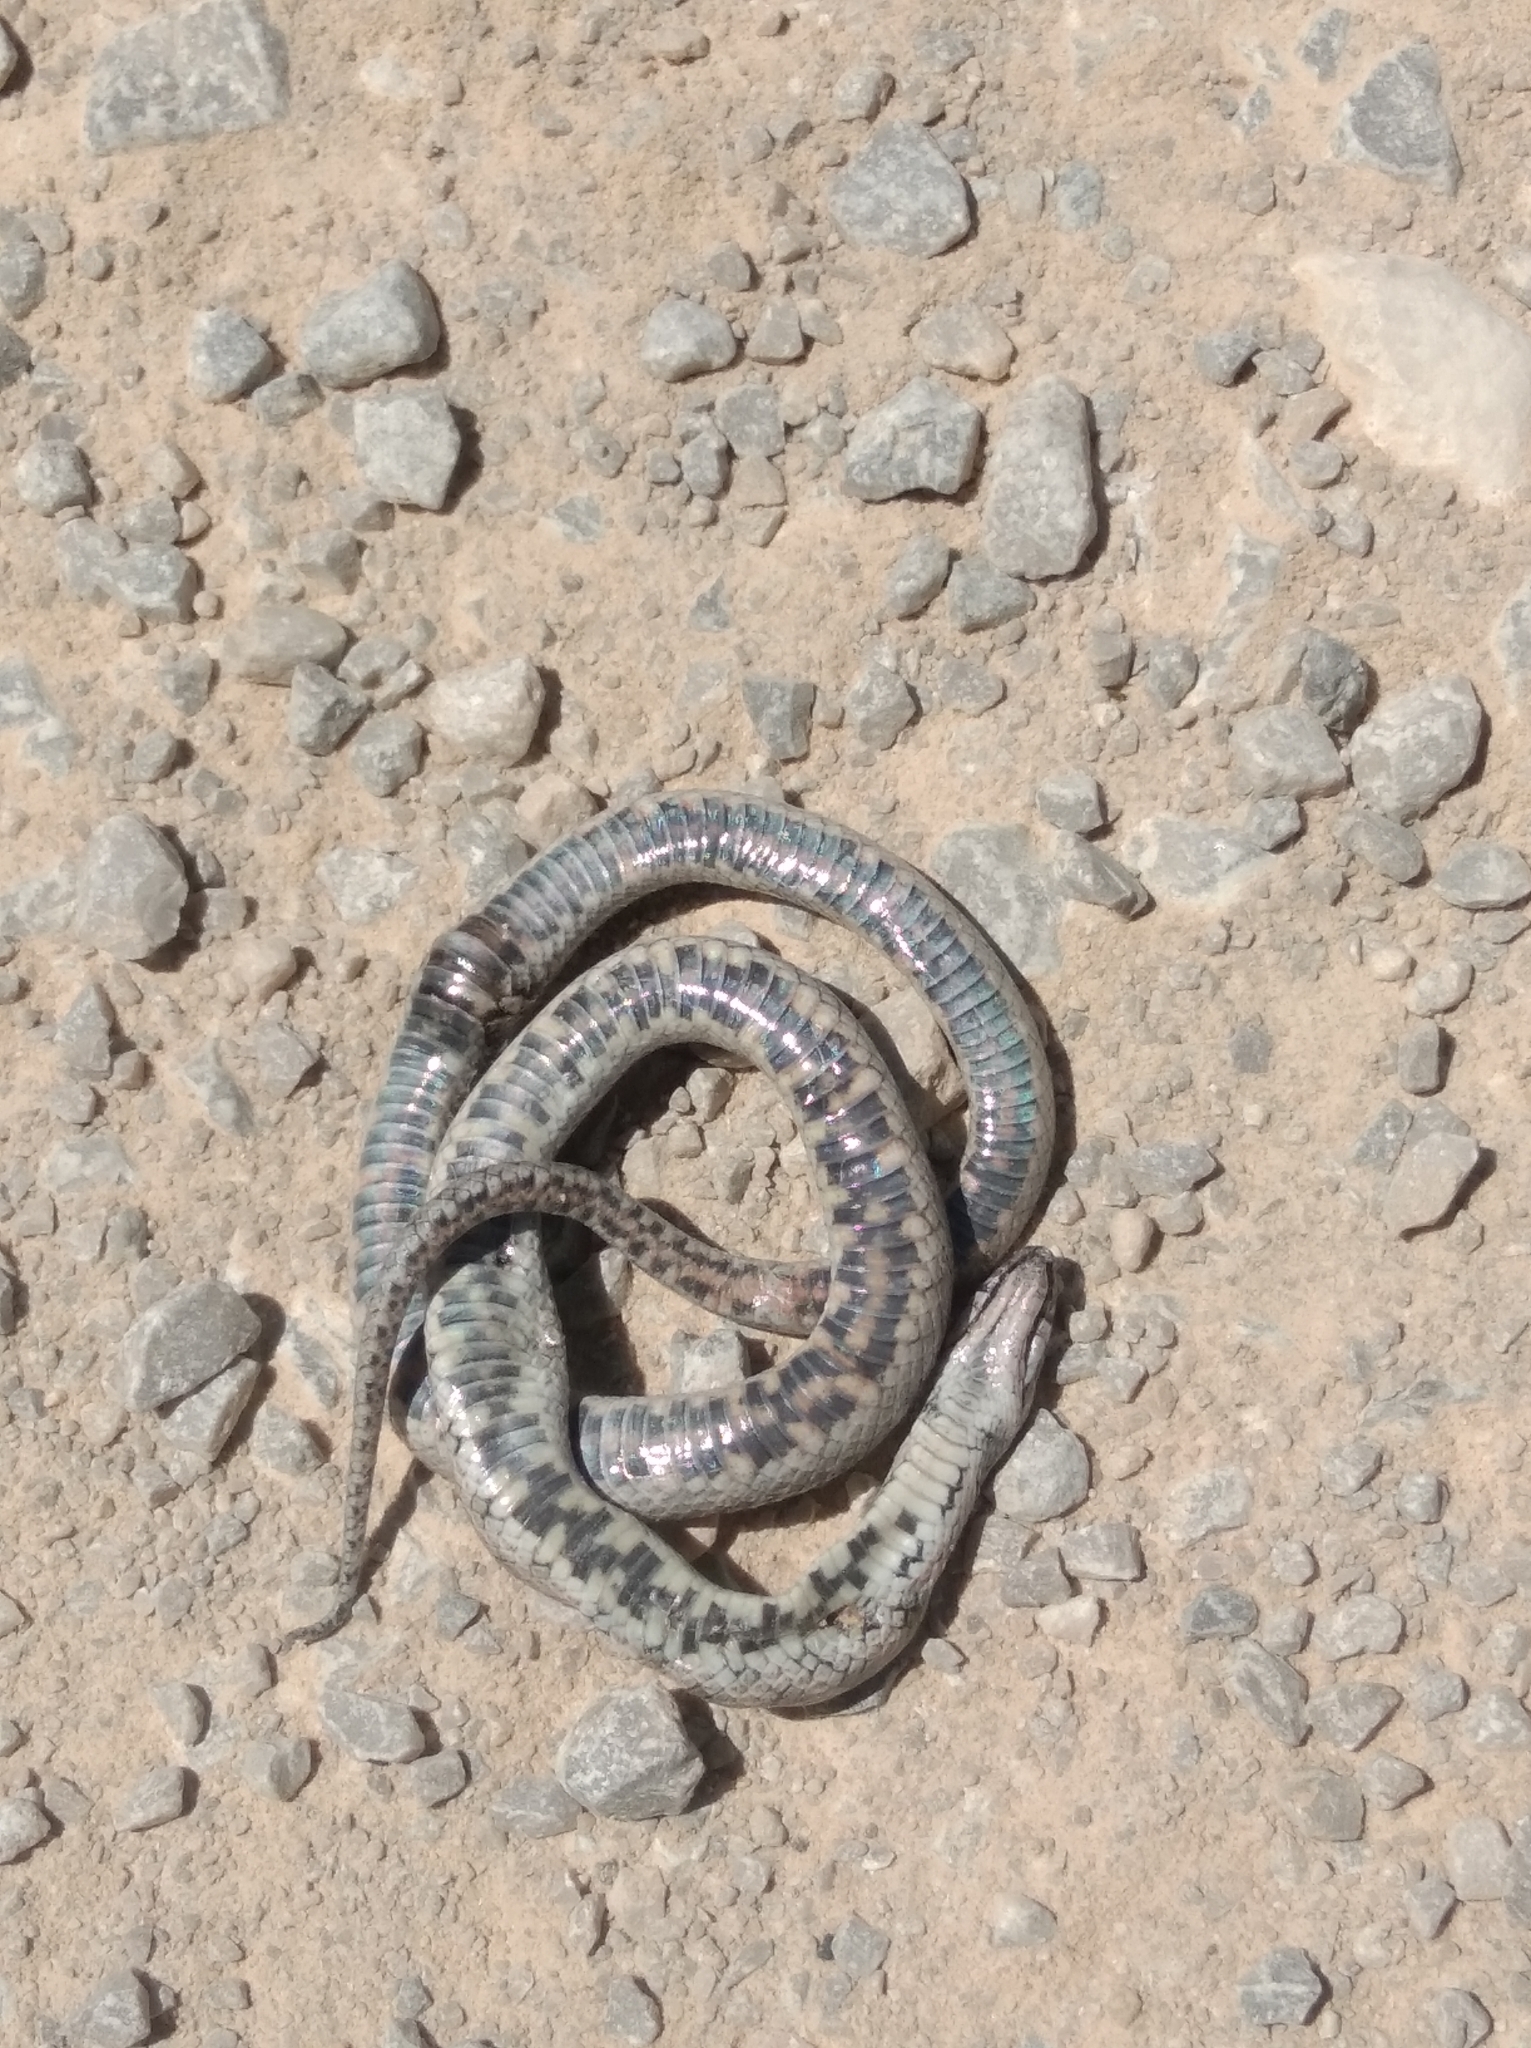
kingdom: Animalia
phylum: Chordata
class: Squamata
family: Colubridae
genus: Coronella
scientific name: Coronella girondica
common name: Southern smooth snake
